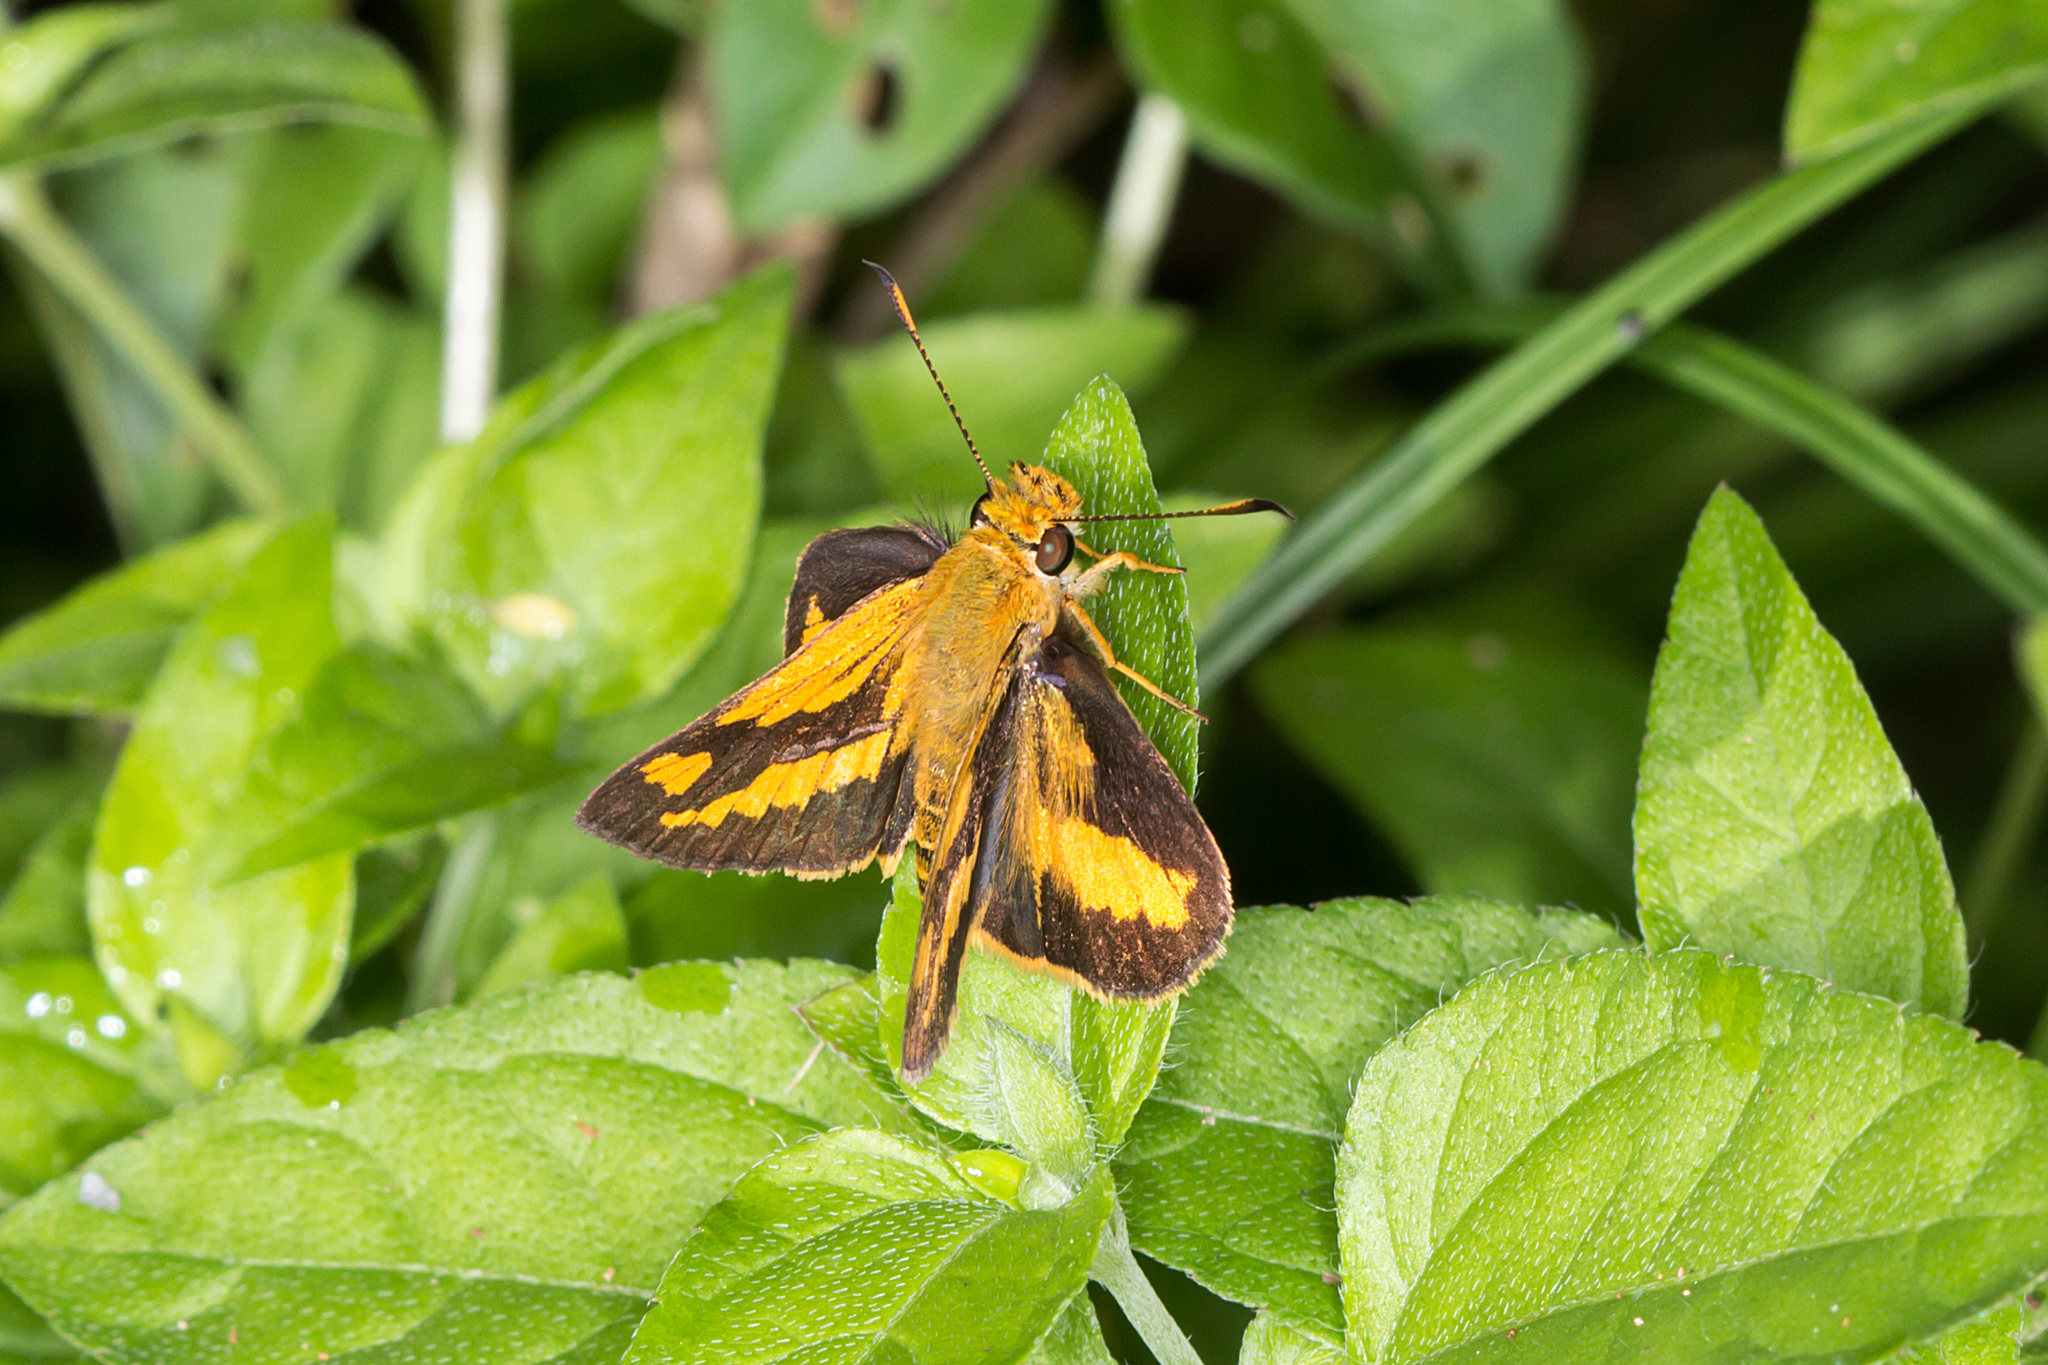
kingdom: Animalia
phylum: Arthropoda
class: Insecta
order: Lepidoptera
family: Hesperiidae
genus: Arrhenes
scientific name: Arrhenes marnas
